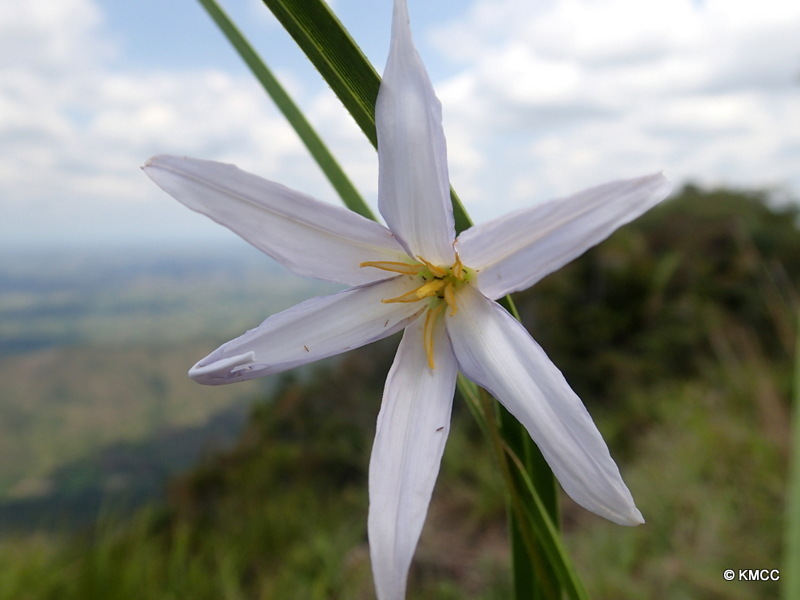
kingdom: Plantae
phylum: Tracheophyta
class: Liliopsida
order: Pandanales
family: Velloziaceae
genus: Xerophyta
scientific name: Xerophyta dasylirioides
